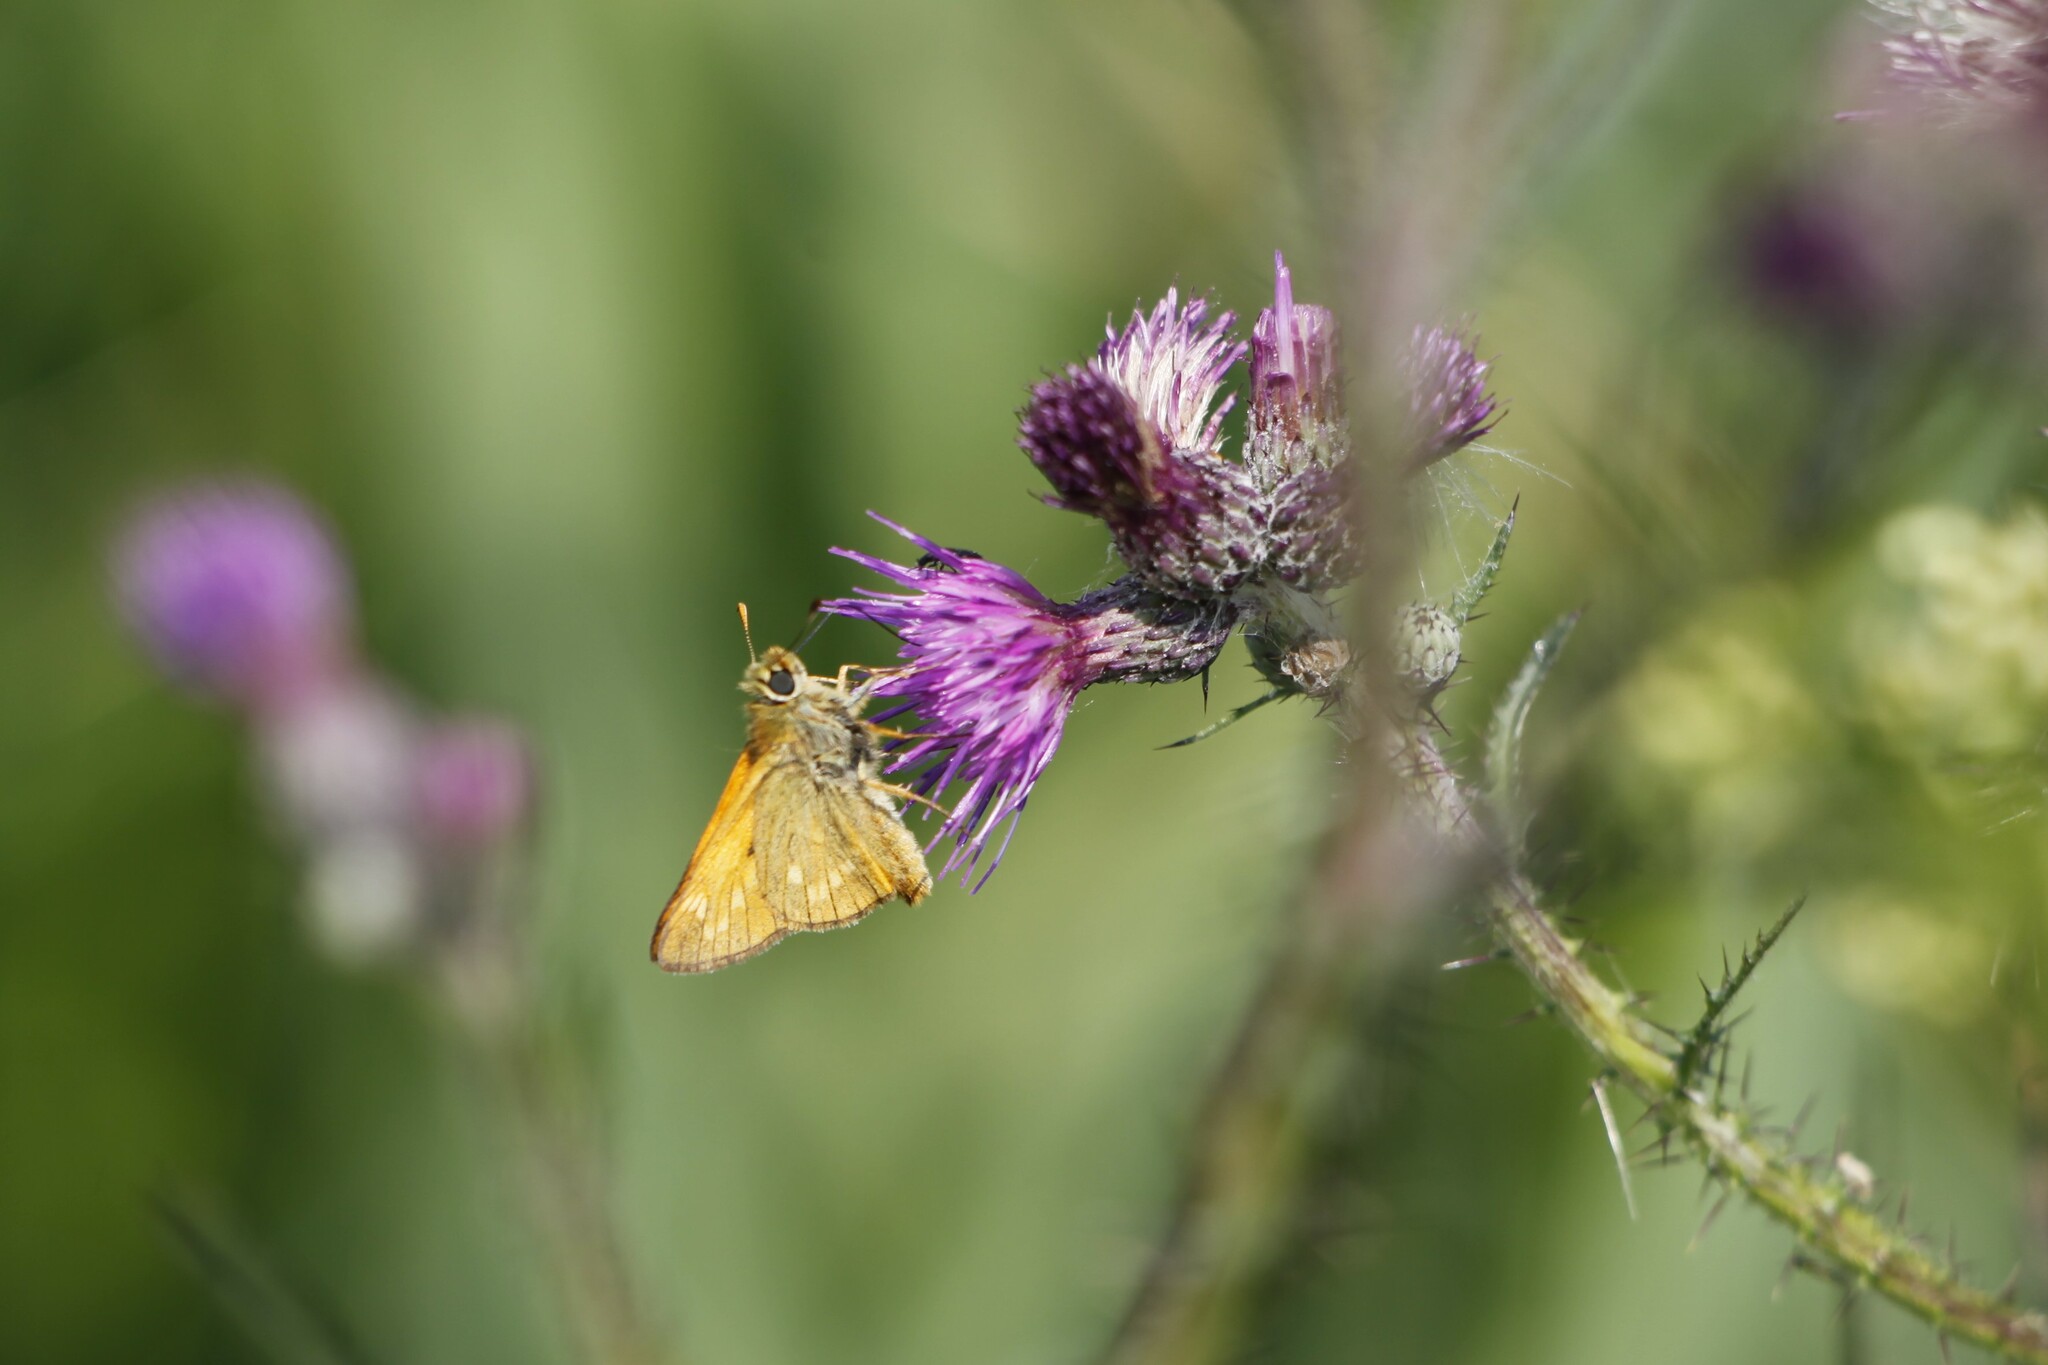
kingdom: Animalia
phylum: Arthropoda
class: Insecta
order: Lepidoptera
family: Hesperiidae
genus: Ochlodes
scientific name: Ochlodes venata
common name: Large skipper
